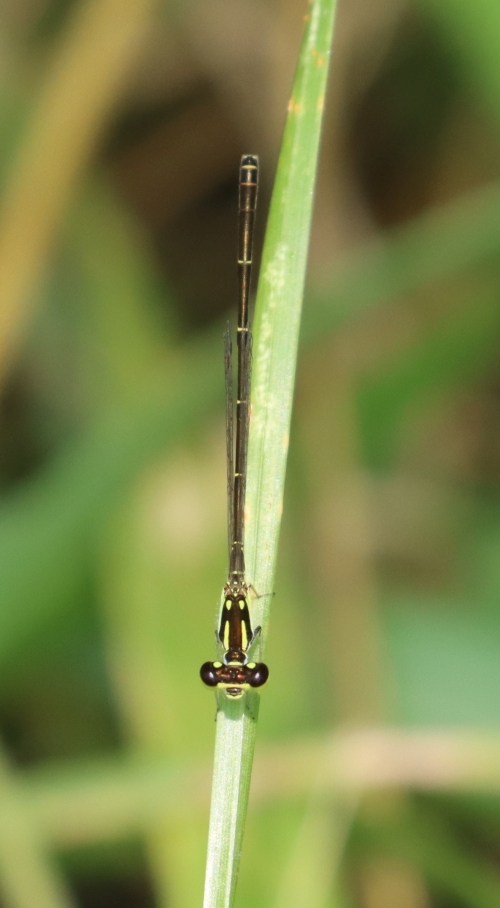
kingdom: Animalia
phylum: Arthropoda
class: Insecta
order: Odonata
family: Coenagrionidae
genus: Ischnura
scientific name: Ischnura posita
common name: Fragile forktail
